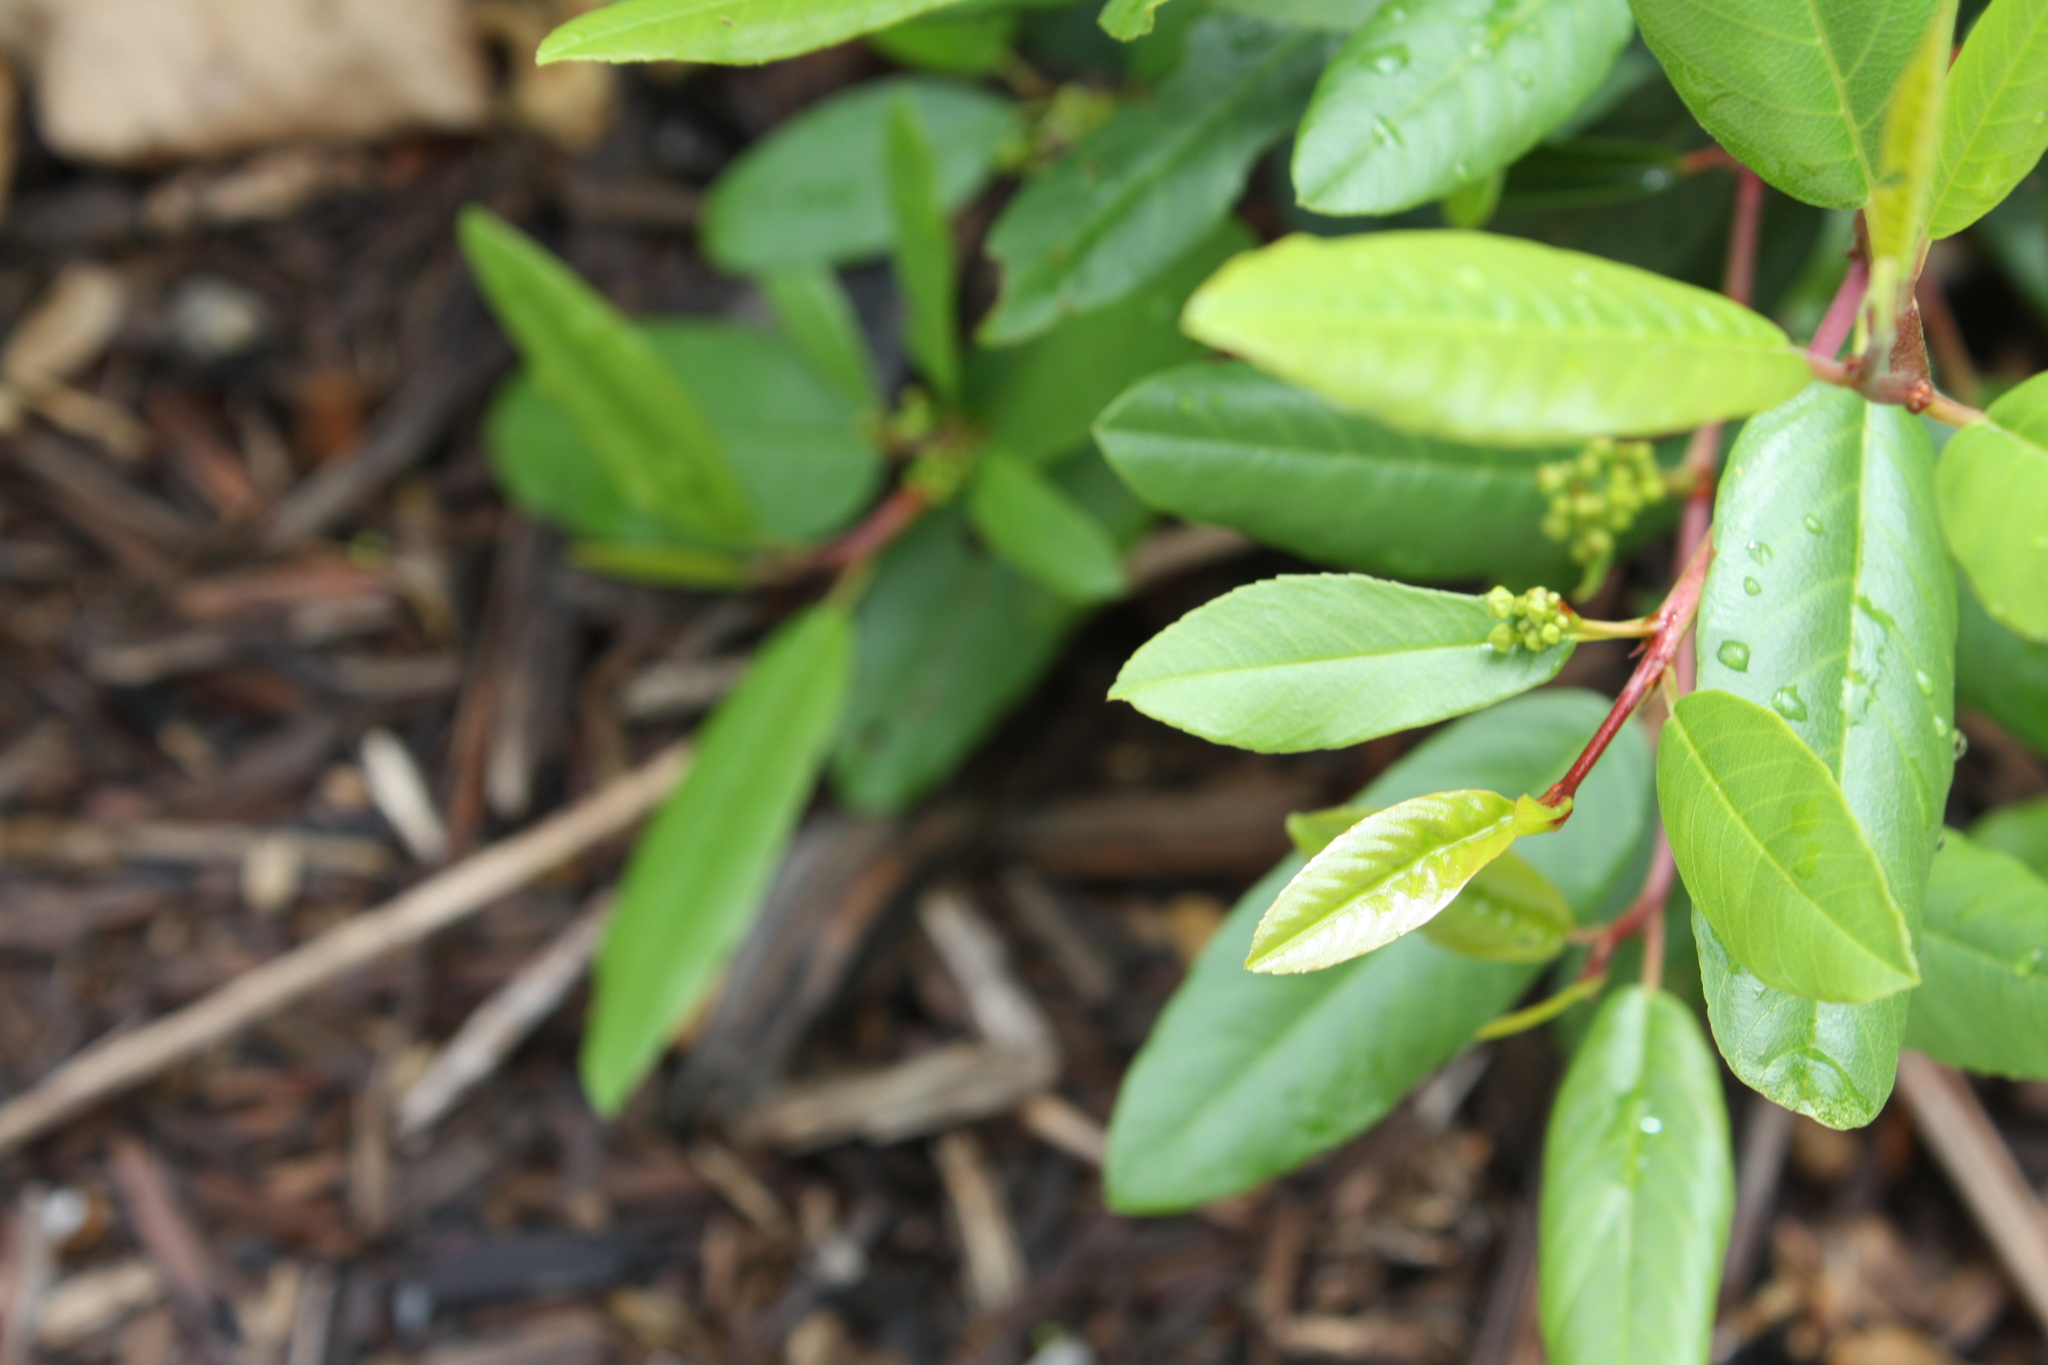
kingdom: Plantae
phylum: Tracheophyta
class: Magnoliopsida
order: Rosales
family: Rhamnaceae
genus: Frangula
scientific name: Frangula californica
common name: California buckthorn
